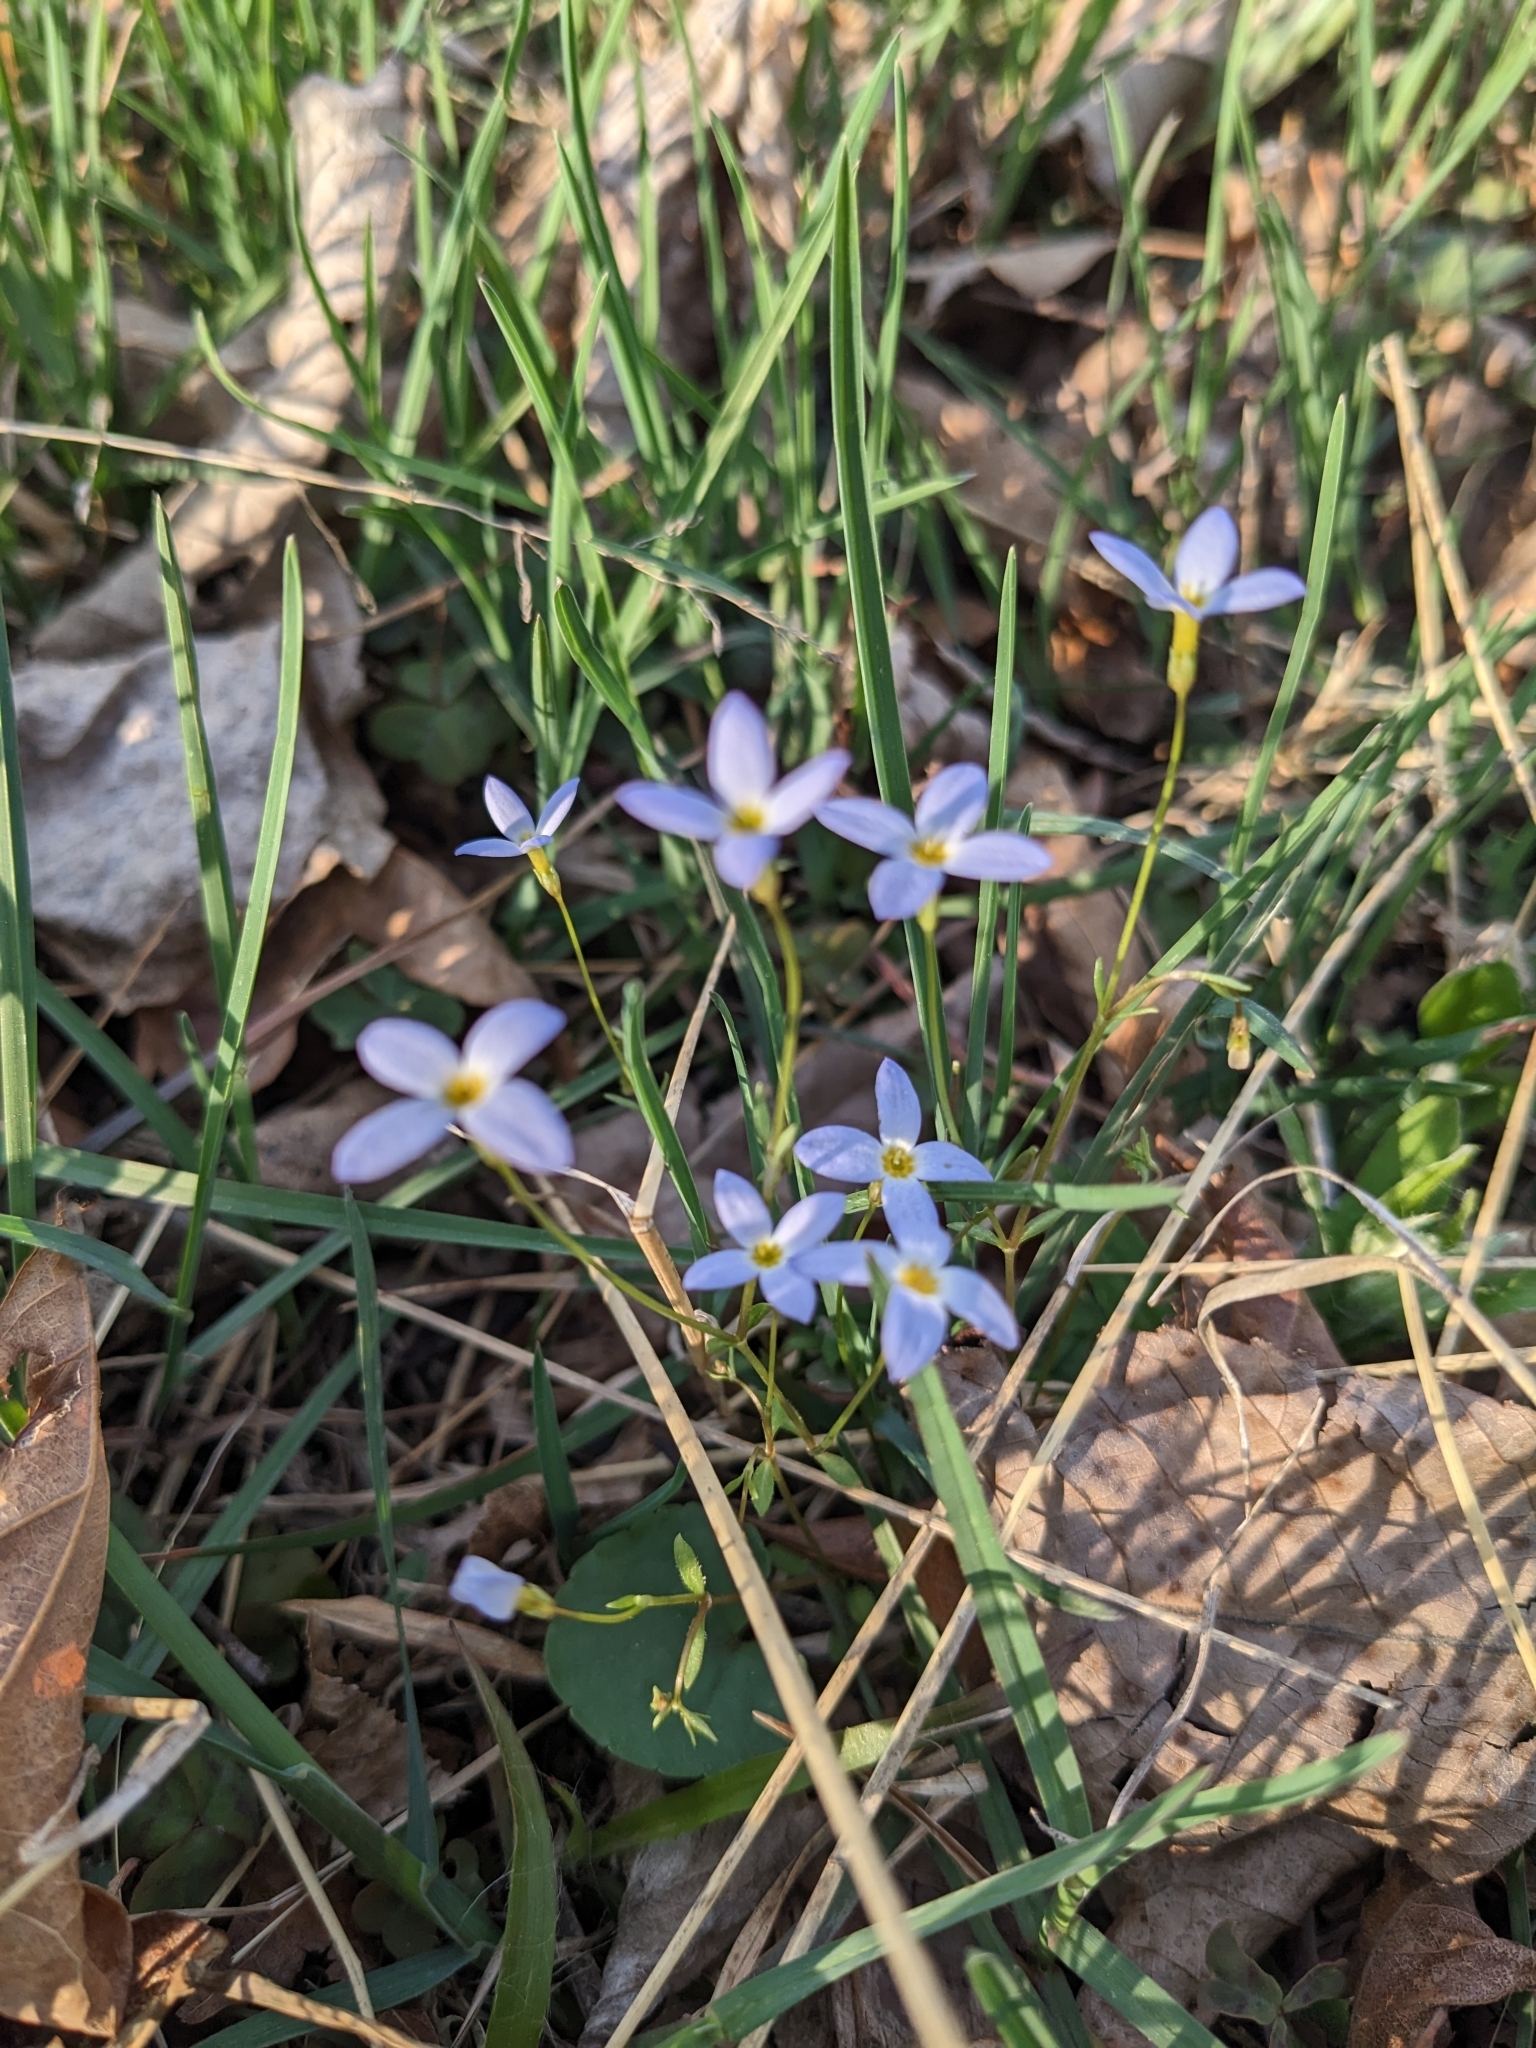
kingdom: Plantae
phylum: Tracheophyta
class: Magnoliopsida
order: Gentianales
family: Rubiaceae
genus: Houstonia
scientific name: Houstonia caerulea
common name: Bluets
